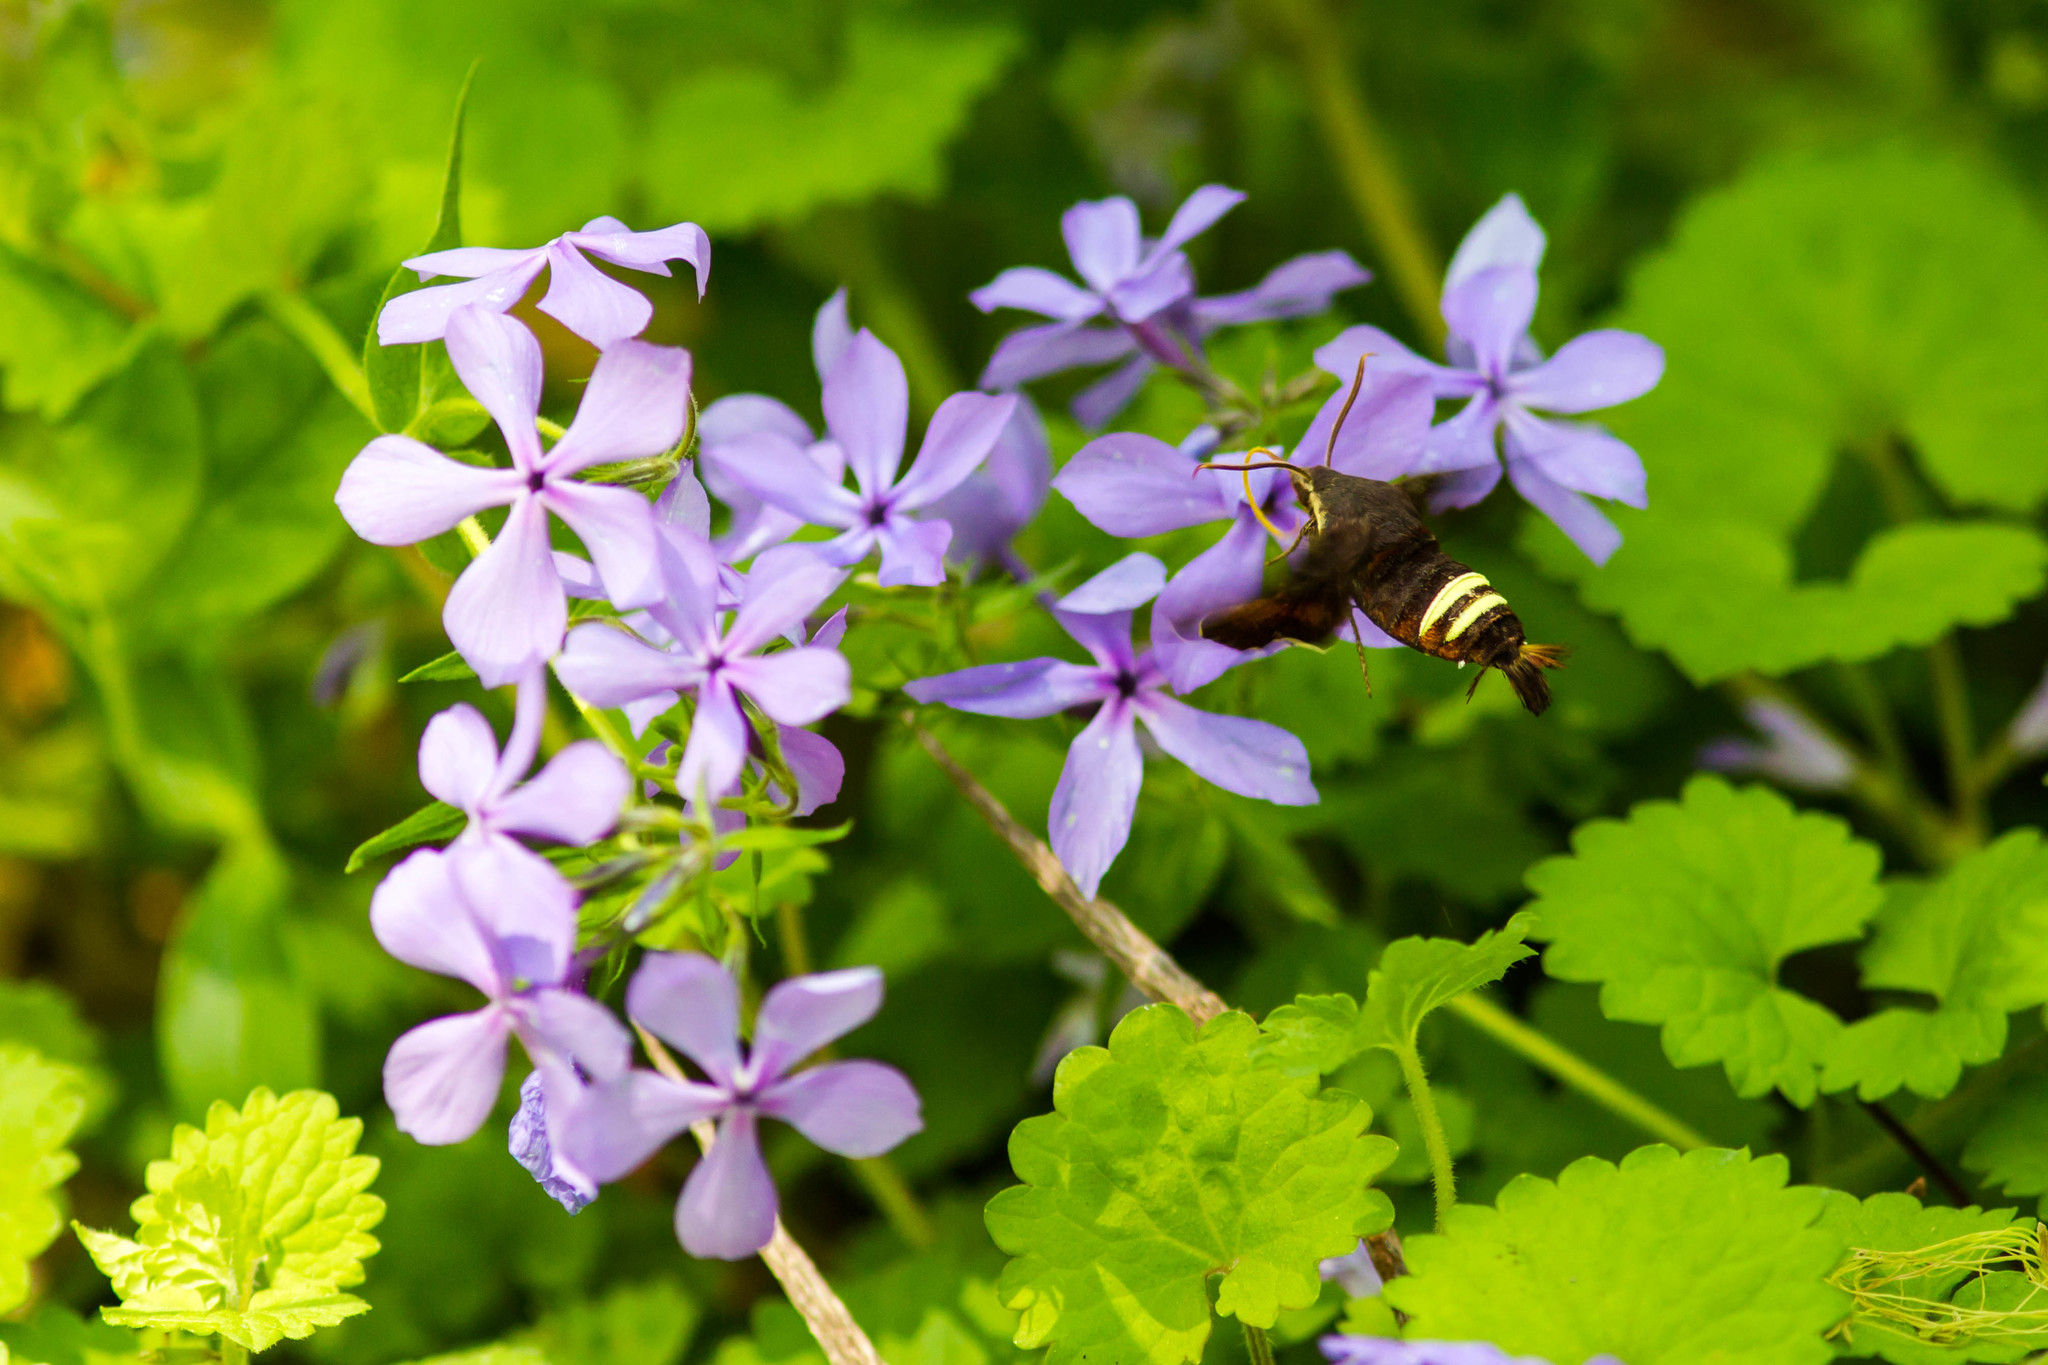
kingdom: Animalia
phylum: Arthropoda
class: Insecta
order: Lepidoptera
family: Sphingidae
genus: Amphion
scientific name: Amphion floridensis
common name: Nessus sphinx
